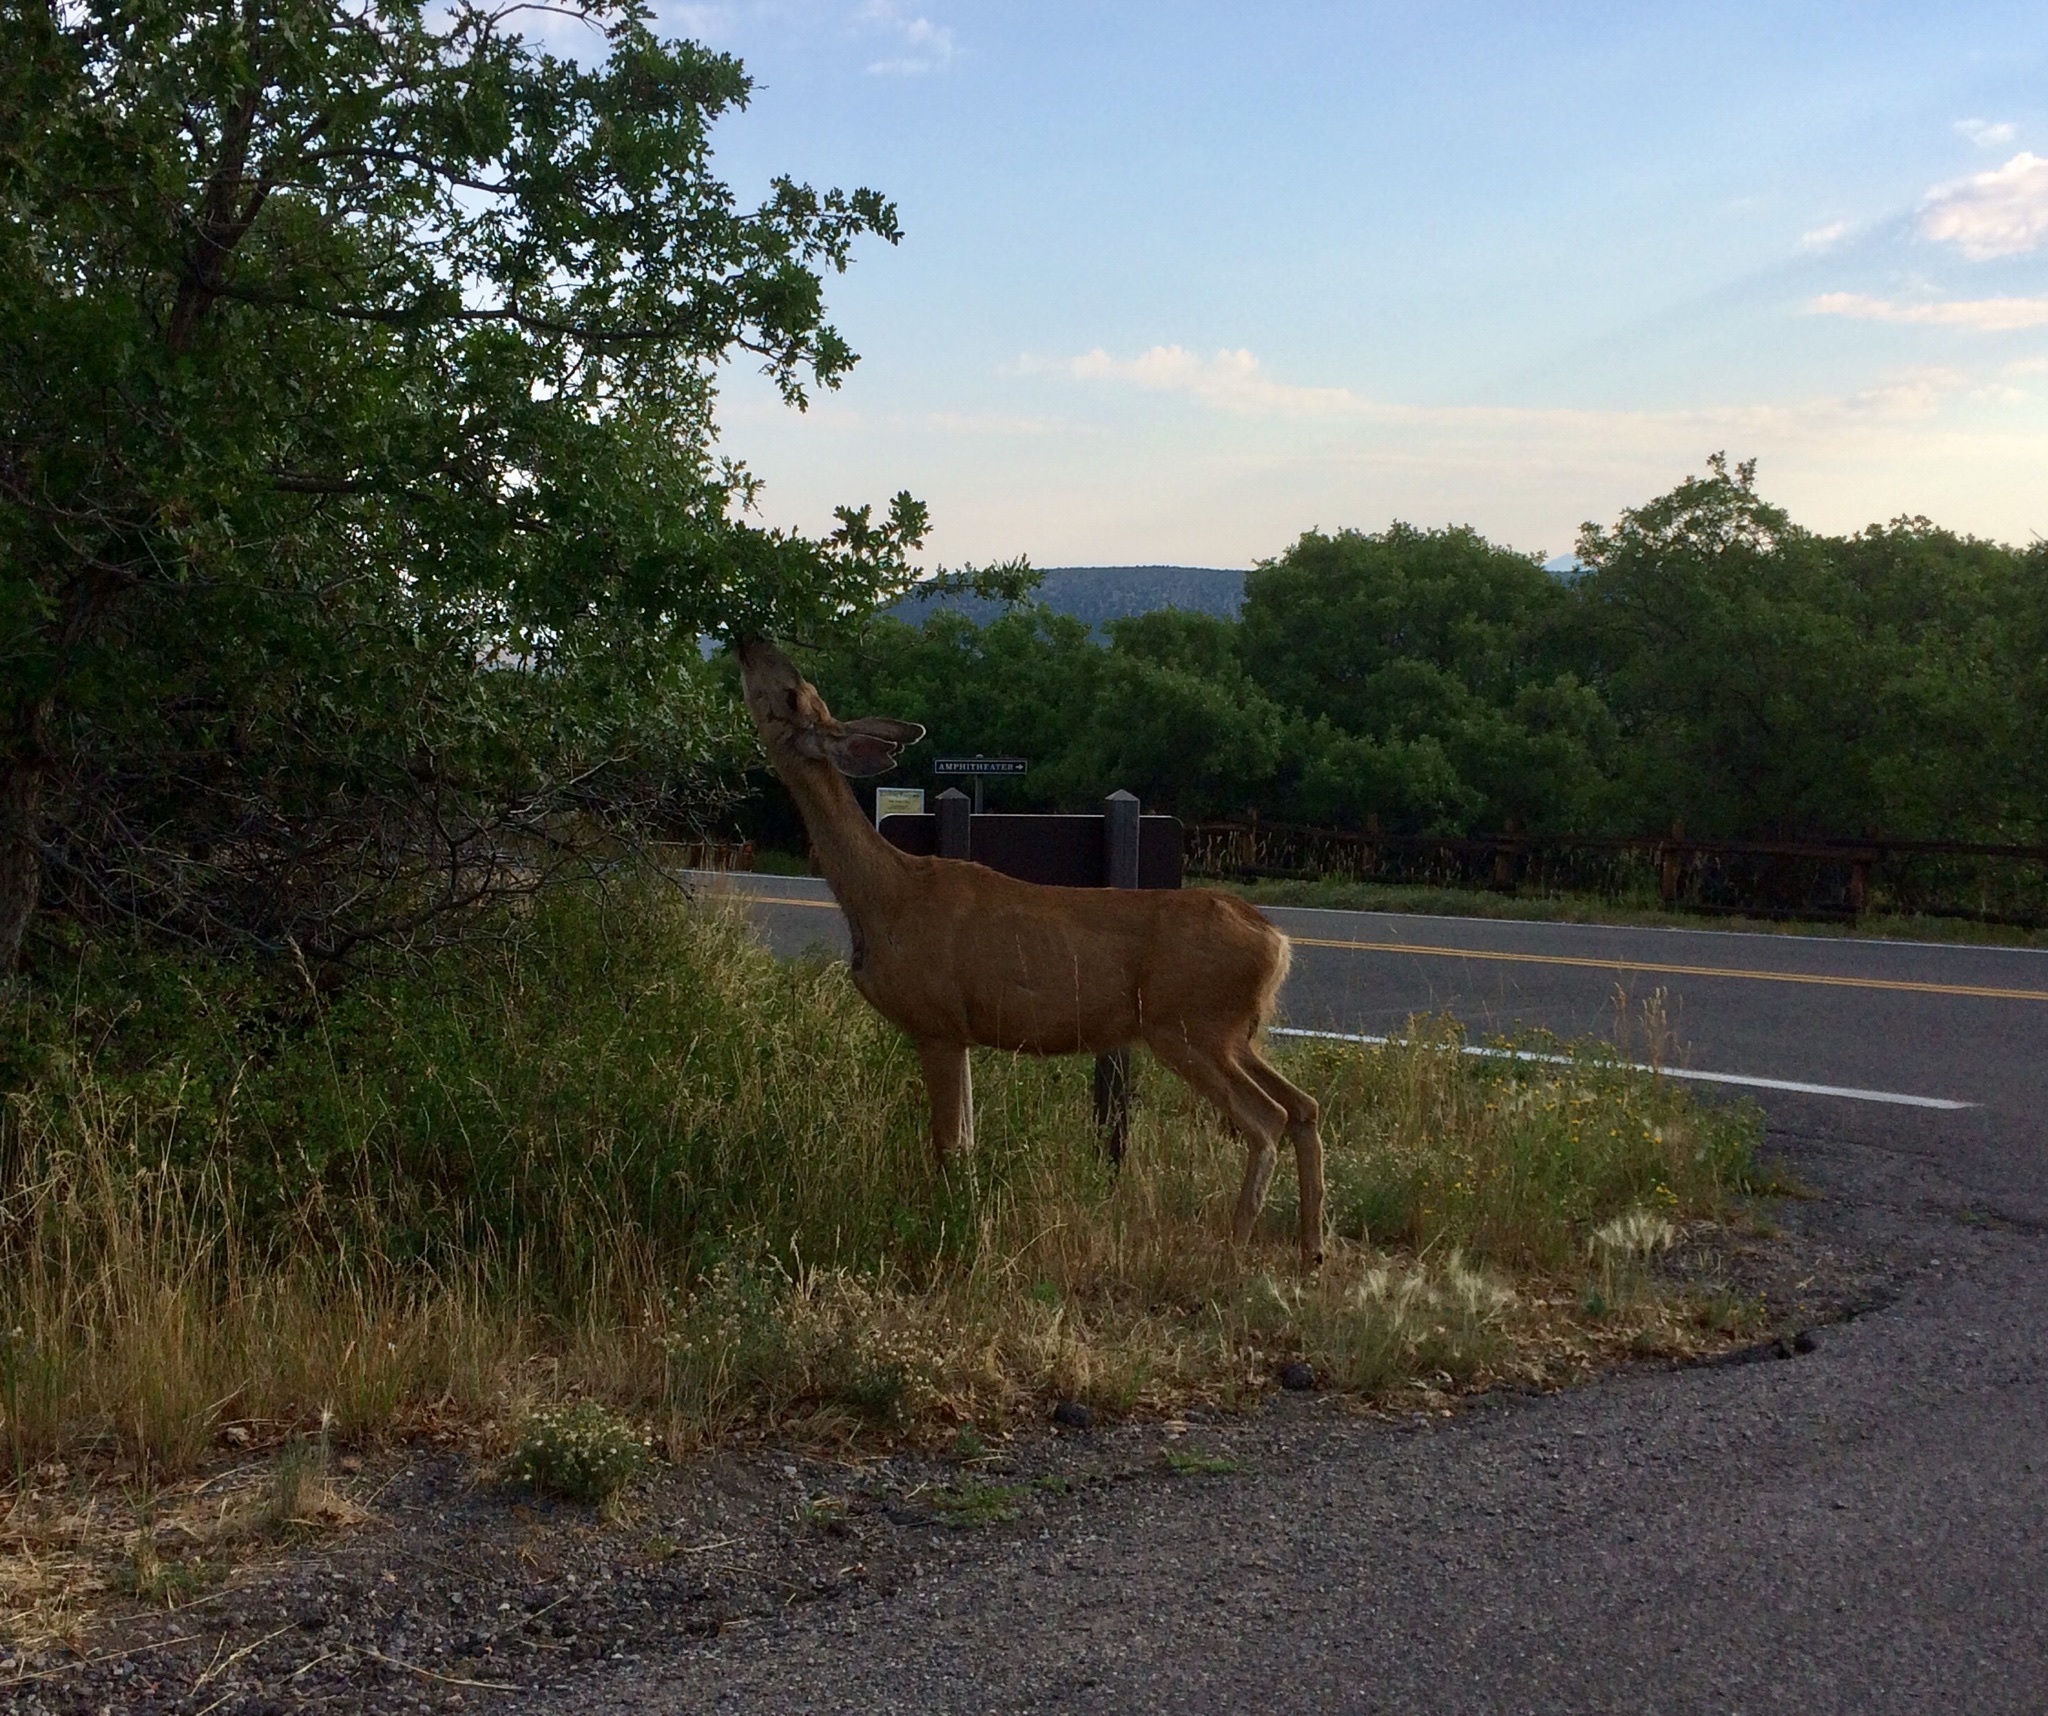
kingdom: Animalia
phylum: Chordata
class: Mammalia
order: Artiodactyla
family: Cervidae
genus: Odocoileus
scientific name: Odocoileus hemionus
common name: Mule deer
